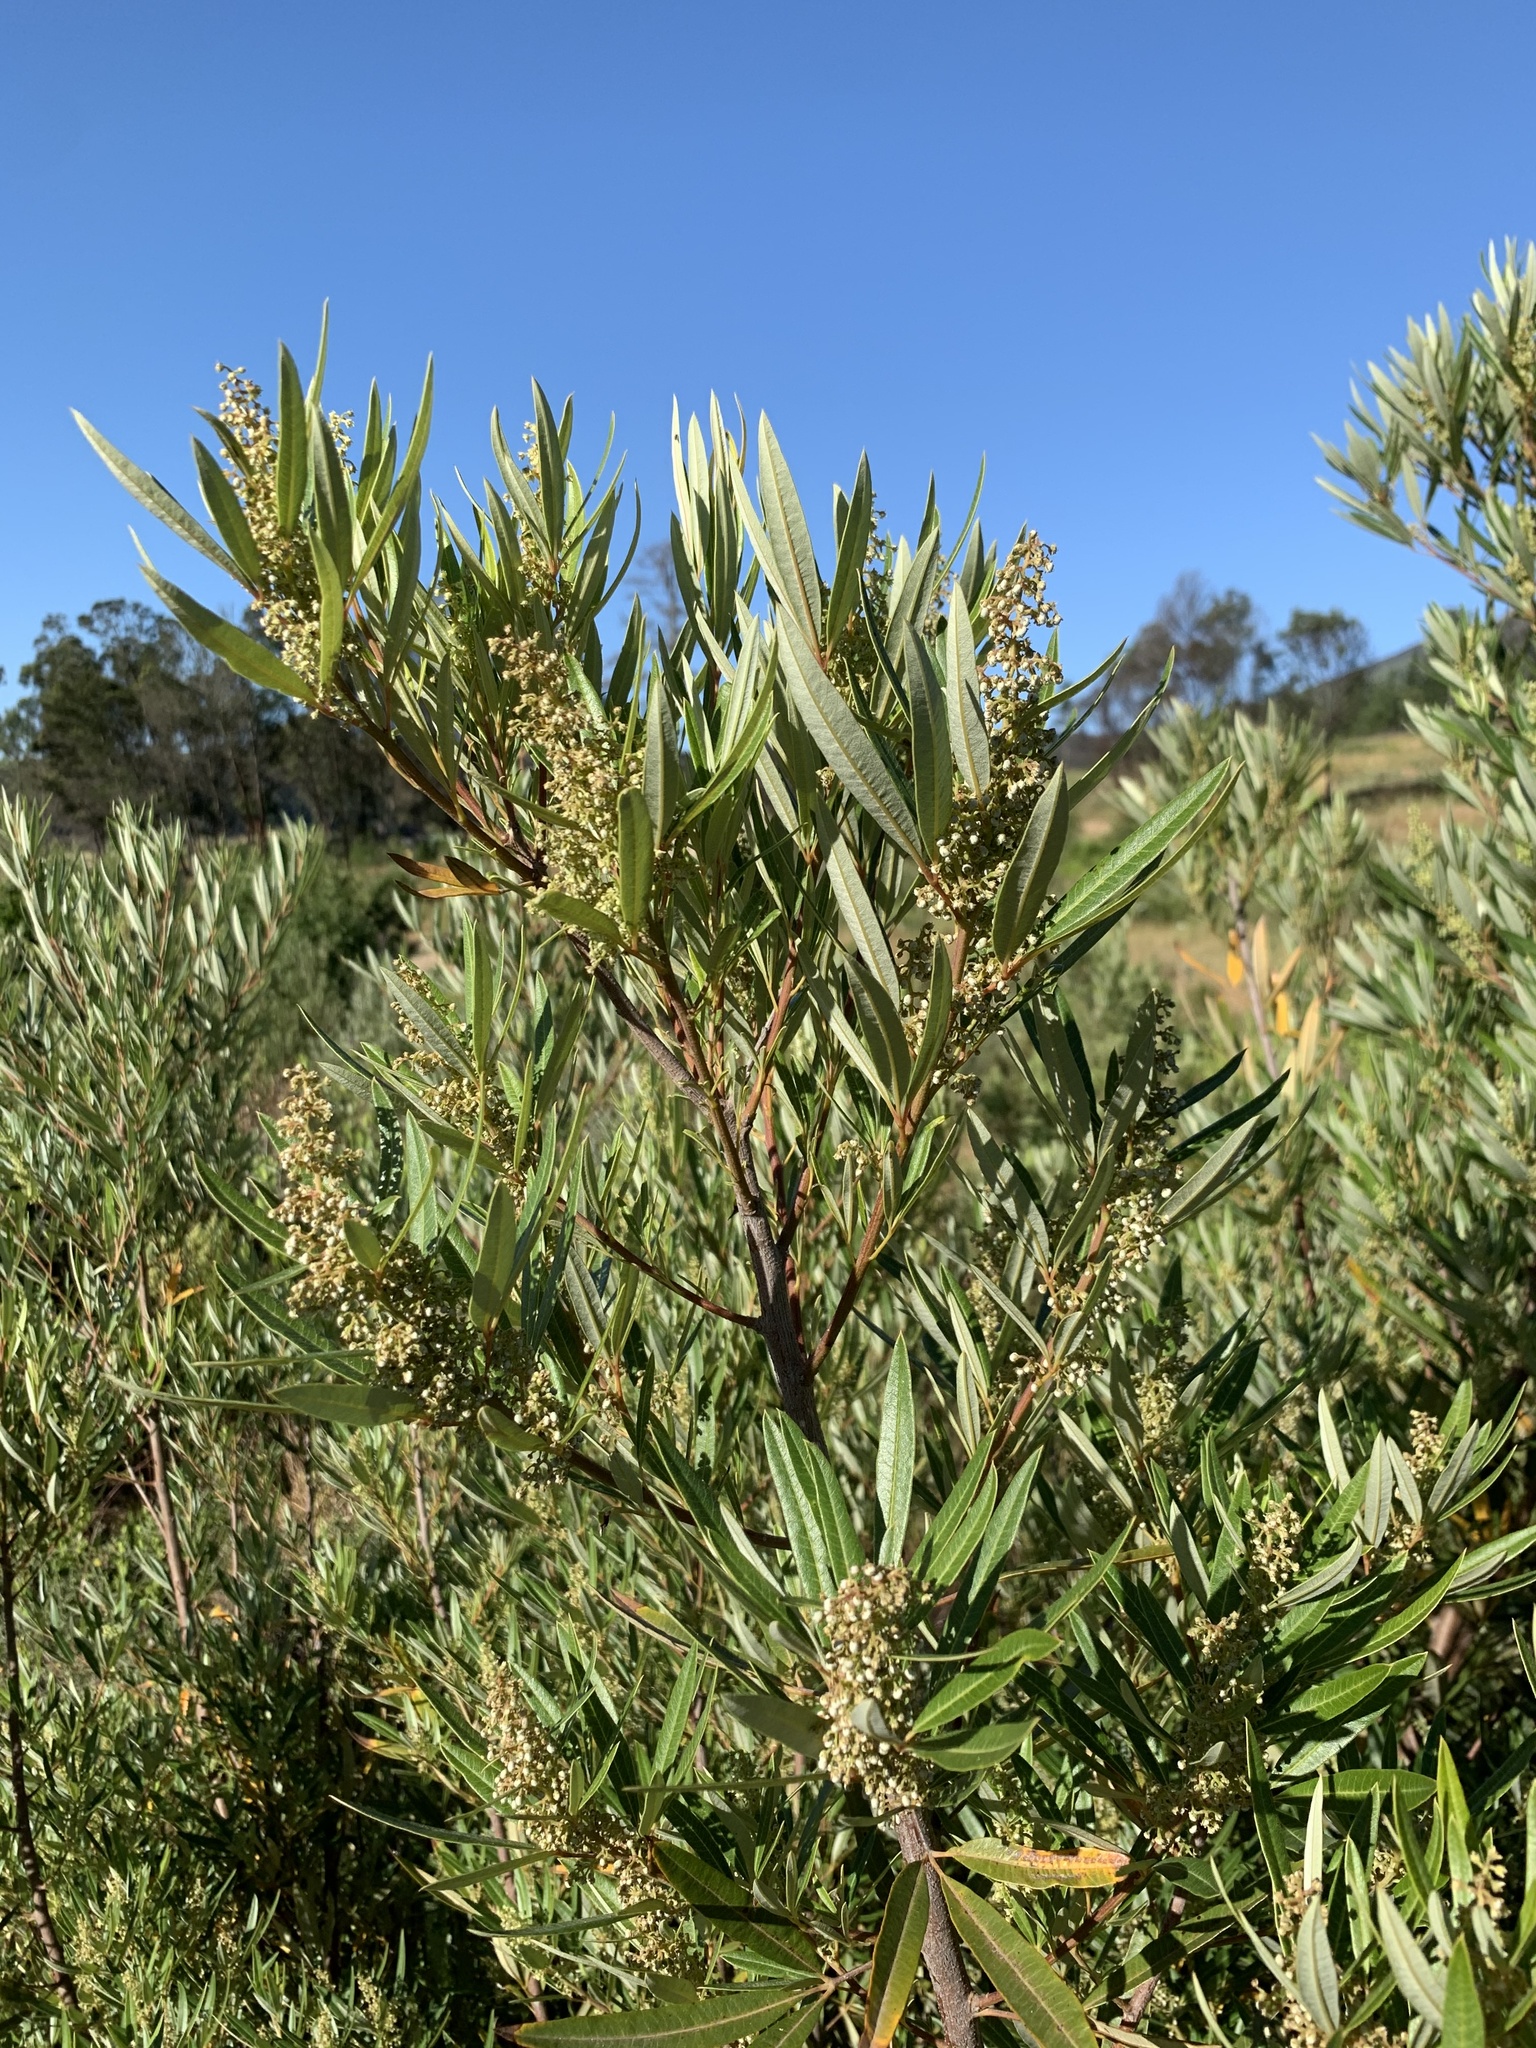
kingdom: Plantae
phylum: Tracheophyta
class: Magnoliopsida
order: Sapindales
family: Anacardiaceae
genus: Searsia
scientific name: Searsia angustifolia
